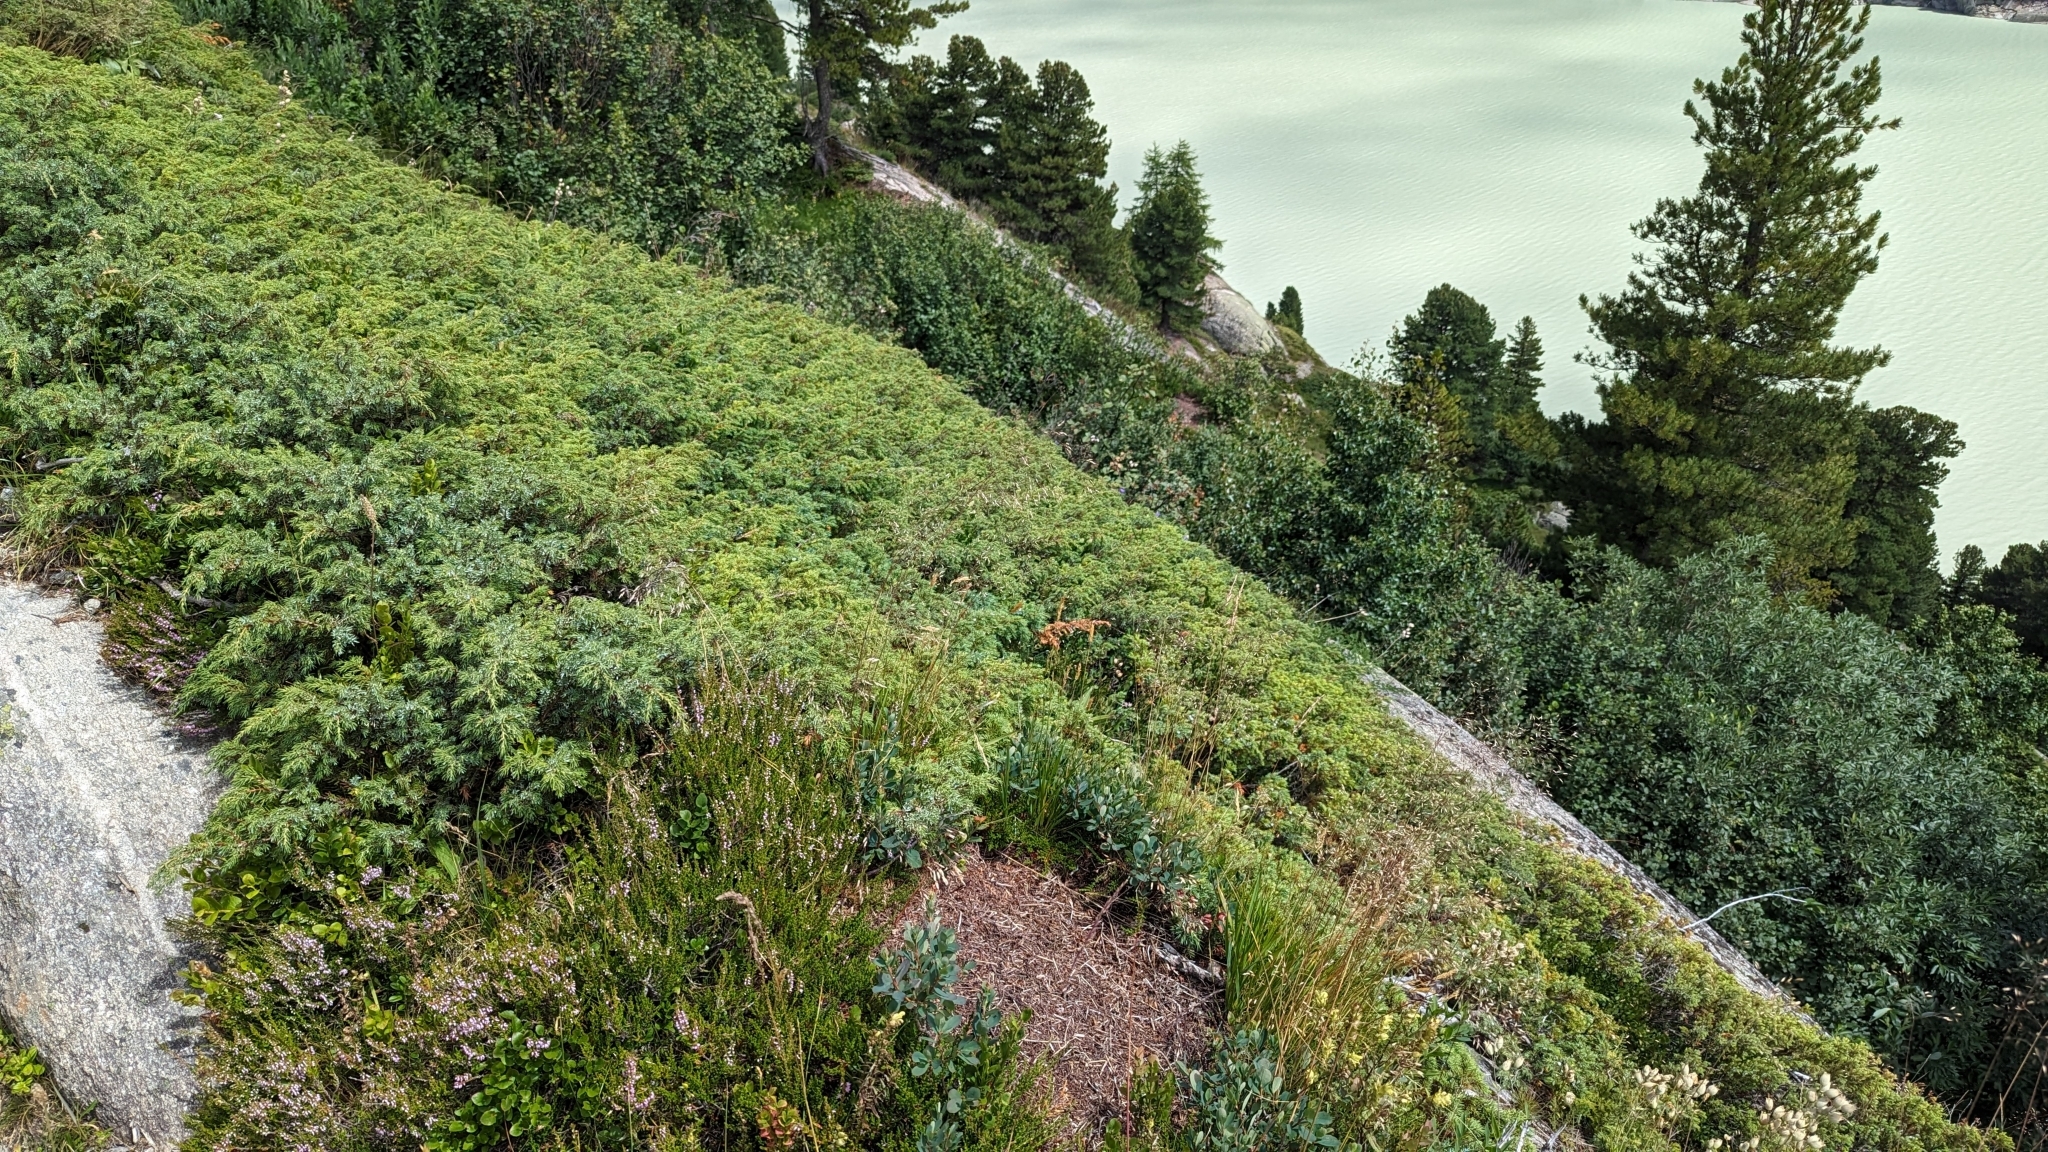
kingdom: Animalia
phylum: Arthropoda
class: Insecta
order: Hymenoptera
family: Formicidae
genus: Formica
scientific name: Formica
